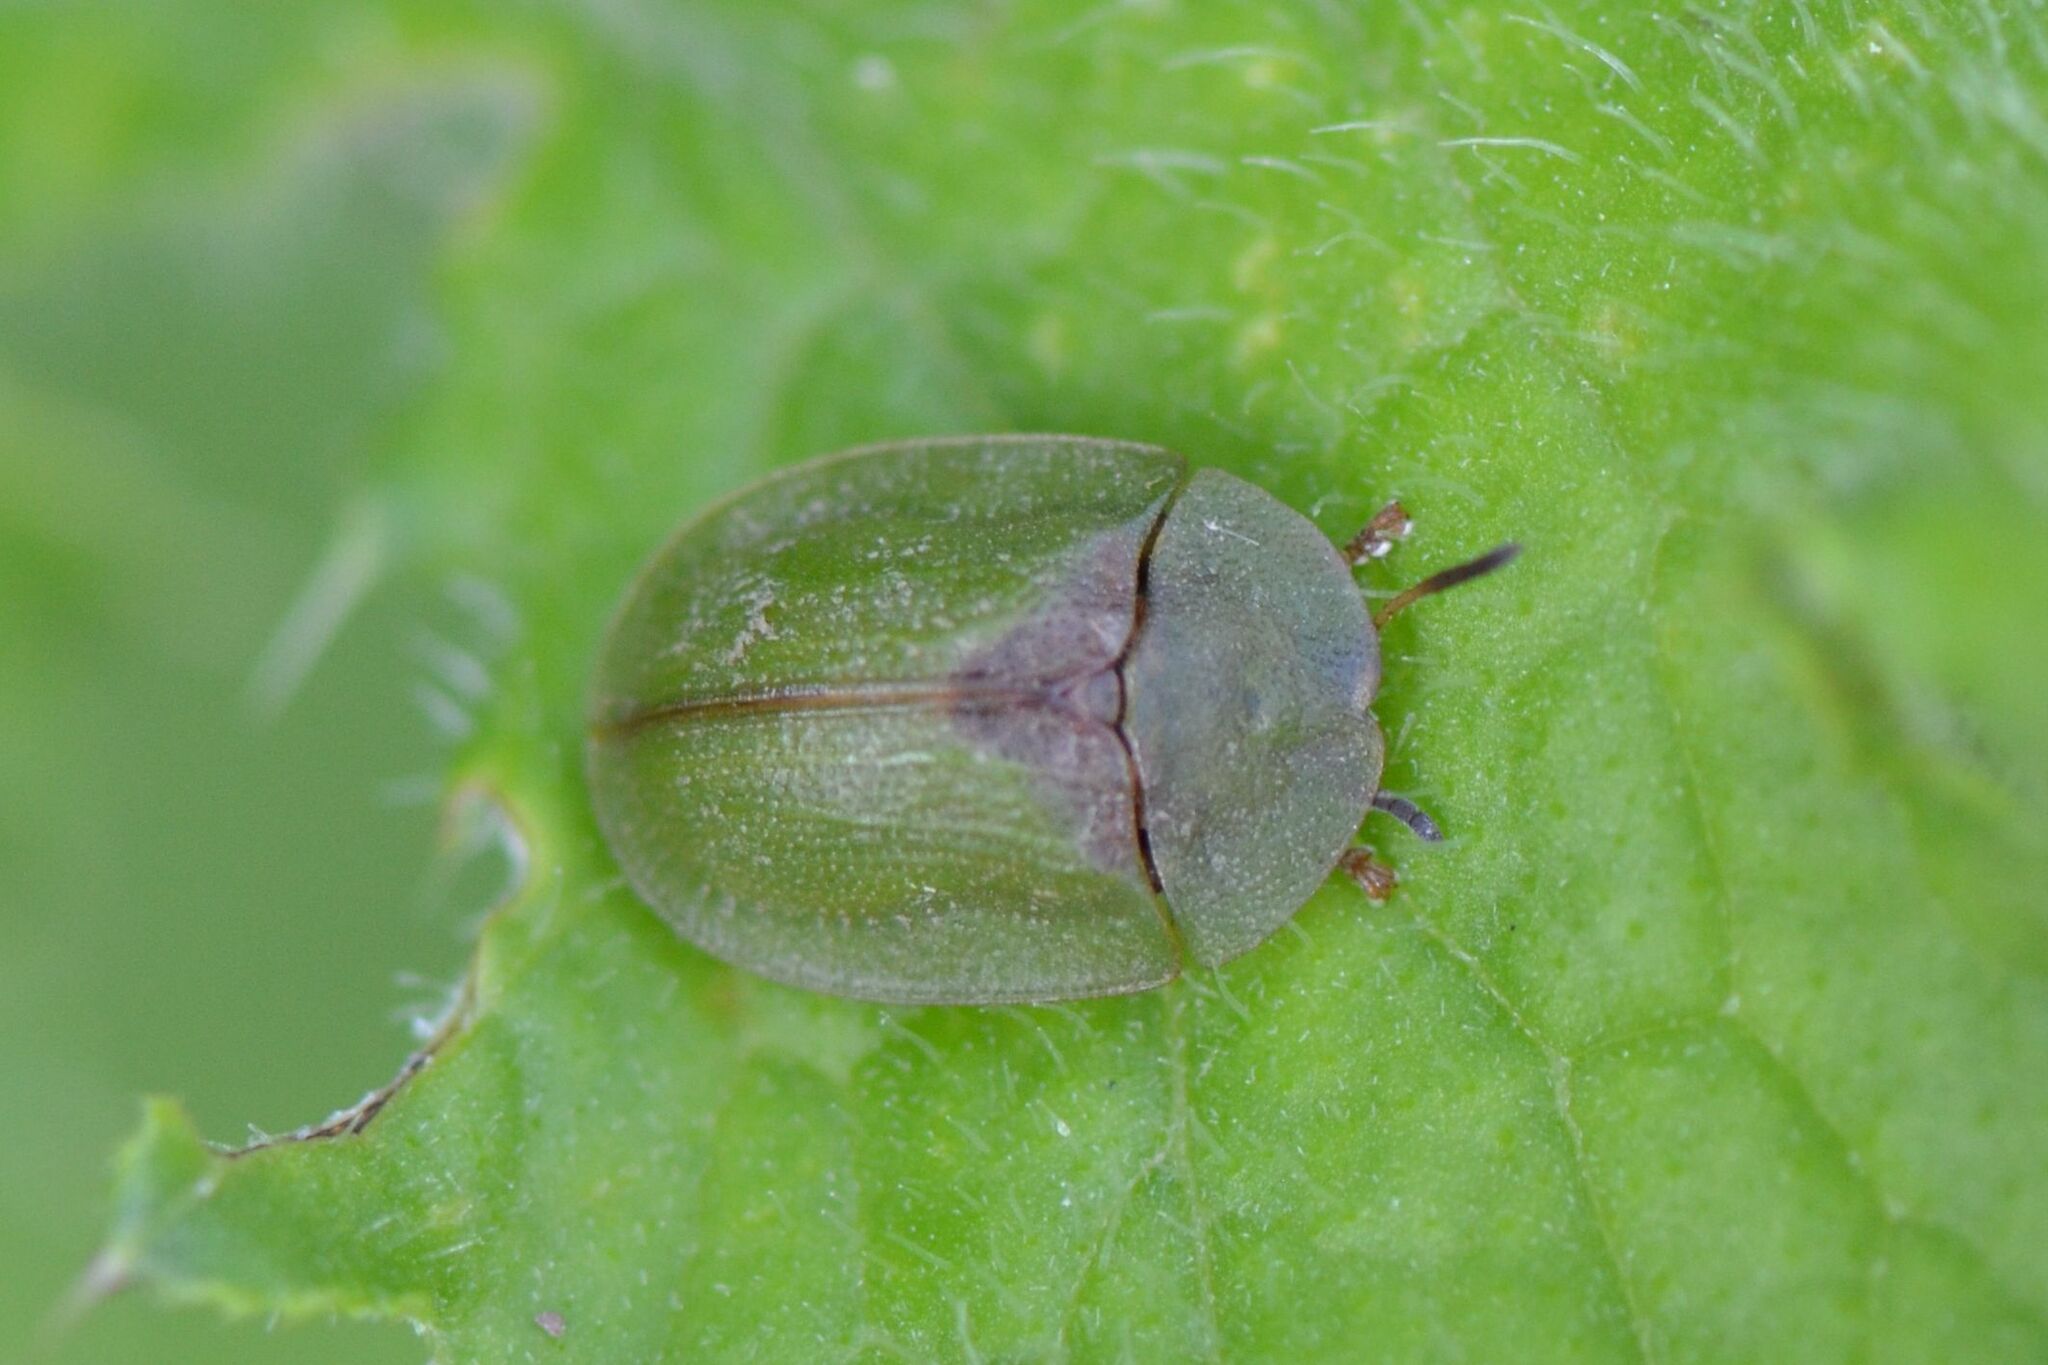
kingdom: Animalia
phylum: Arthropoda
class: Insecta
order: Coleoptera
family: Chrysomelidae
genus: Cassida
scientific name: Cassida rubiginosa
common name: Thistle tortoise beetle
